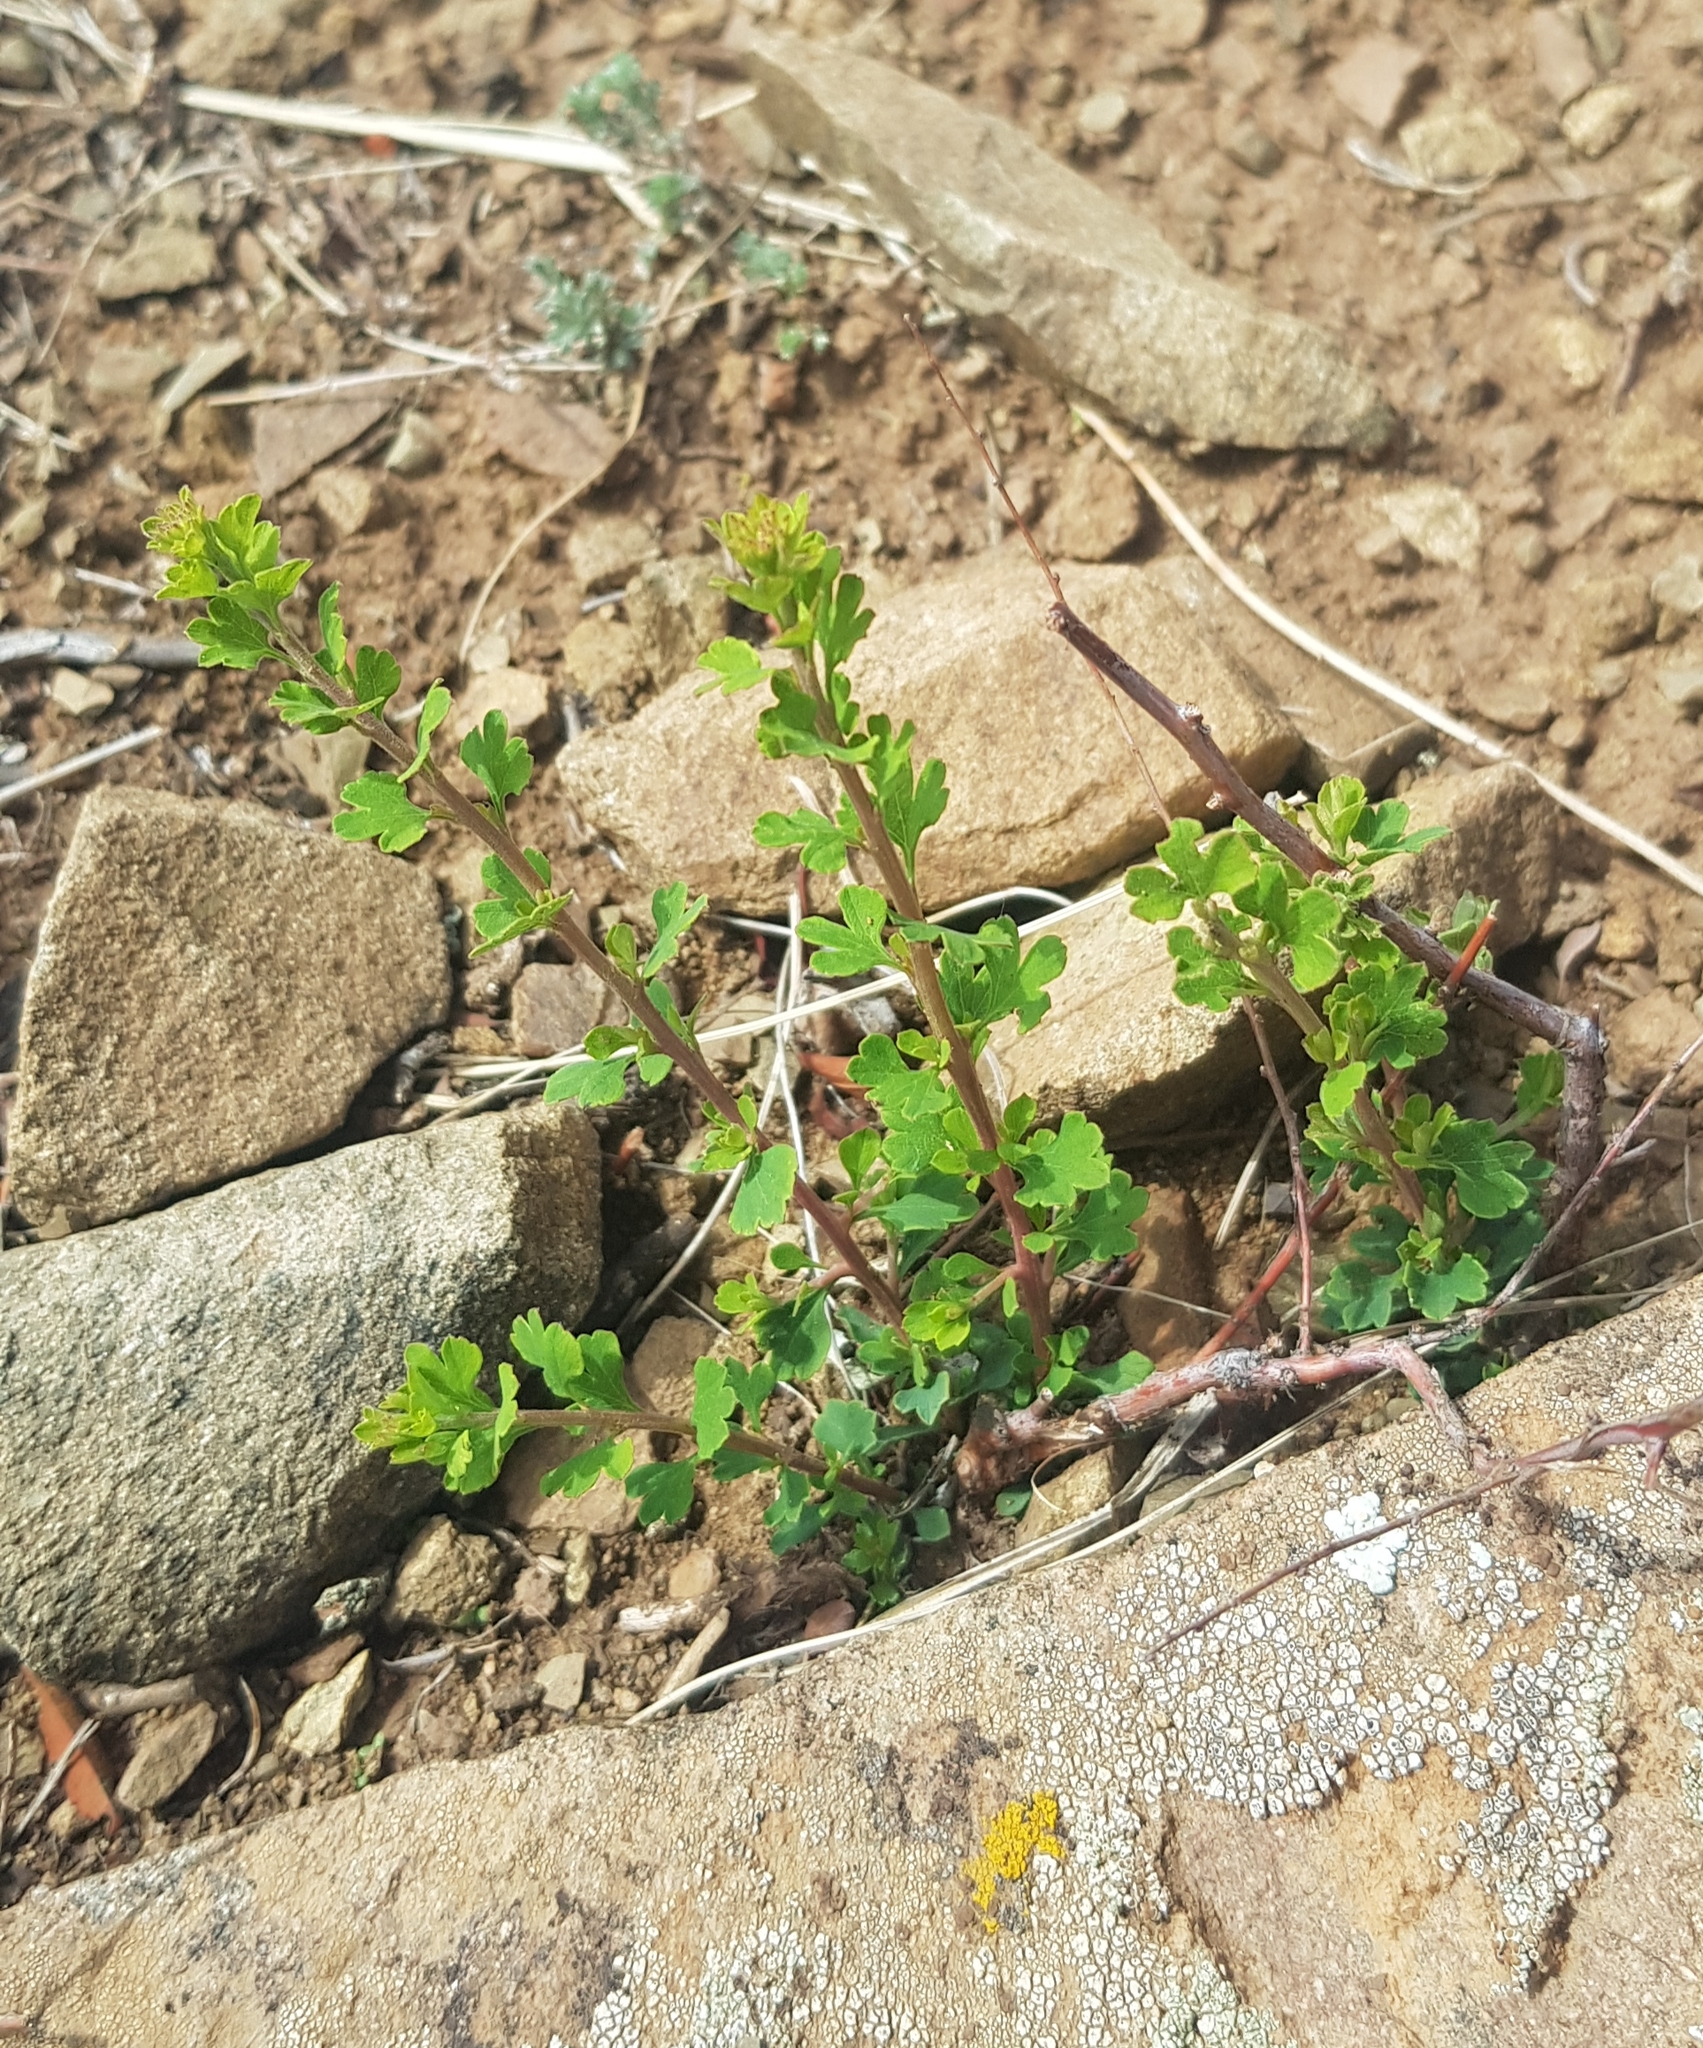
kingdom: Plantae
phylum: Tracheophyta
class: Magnoliopsida
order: Rosales
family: Rosaceae
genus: Spiraea
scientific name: Spiraea aquilegifolia
